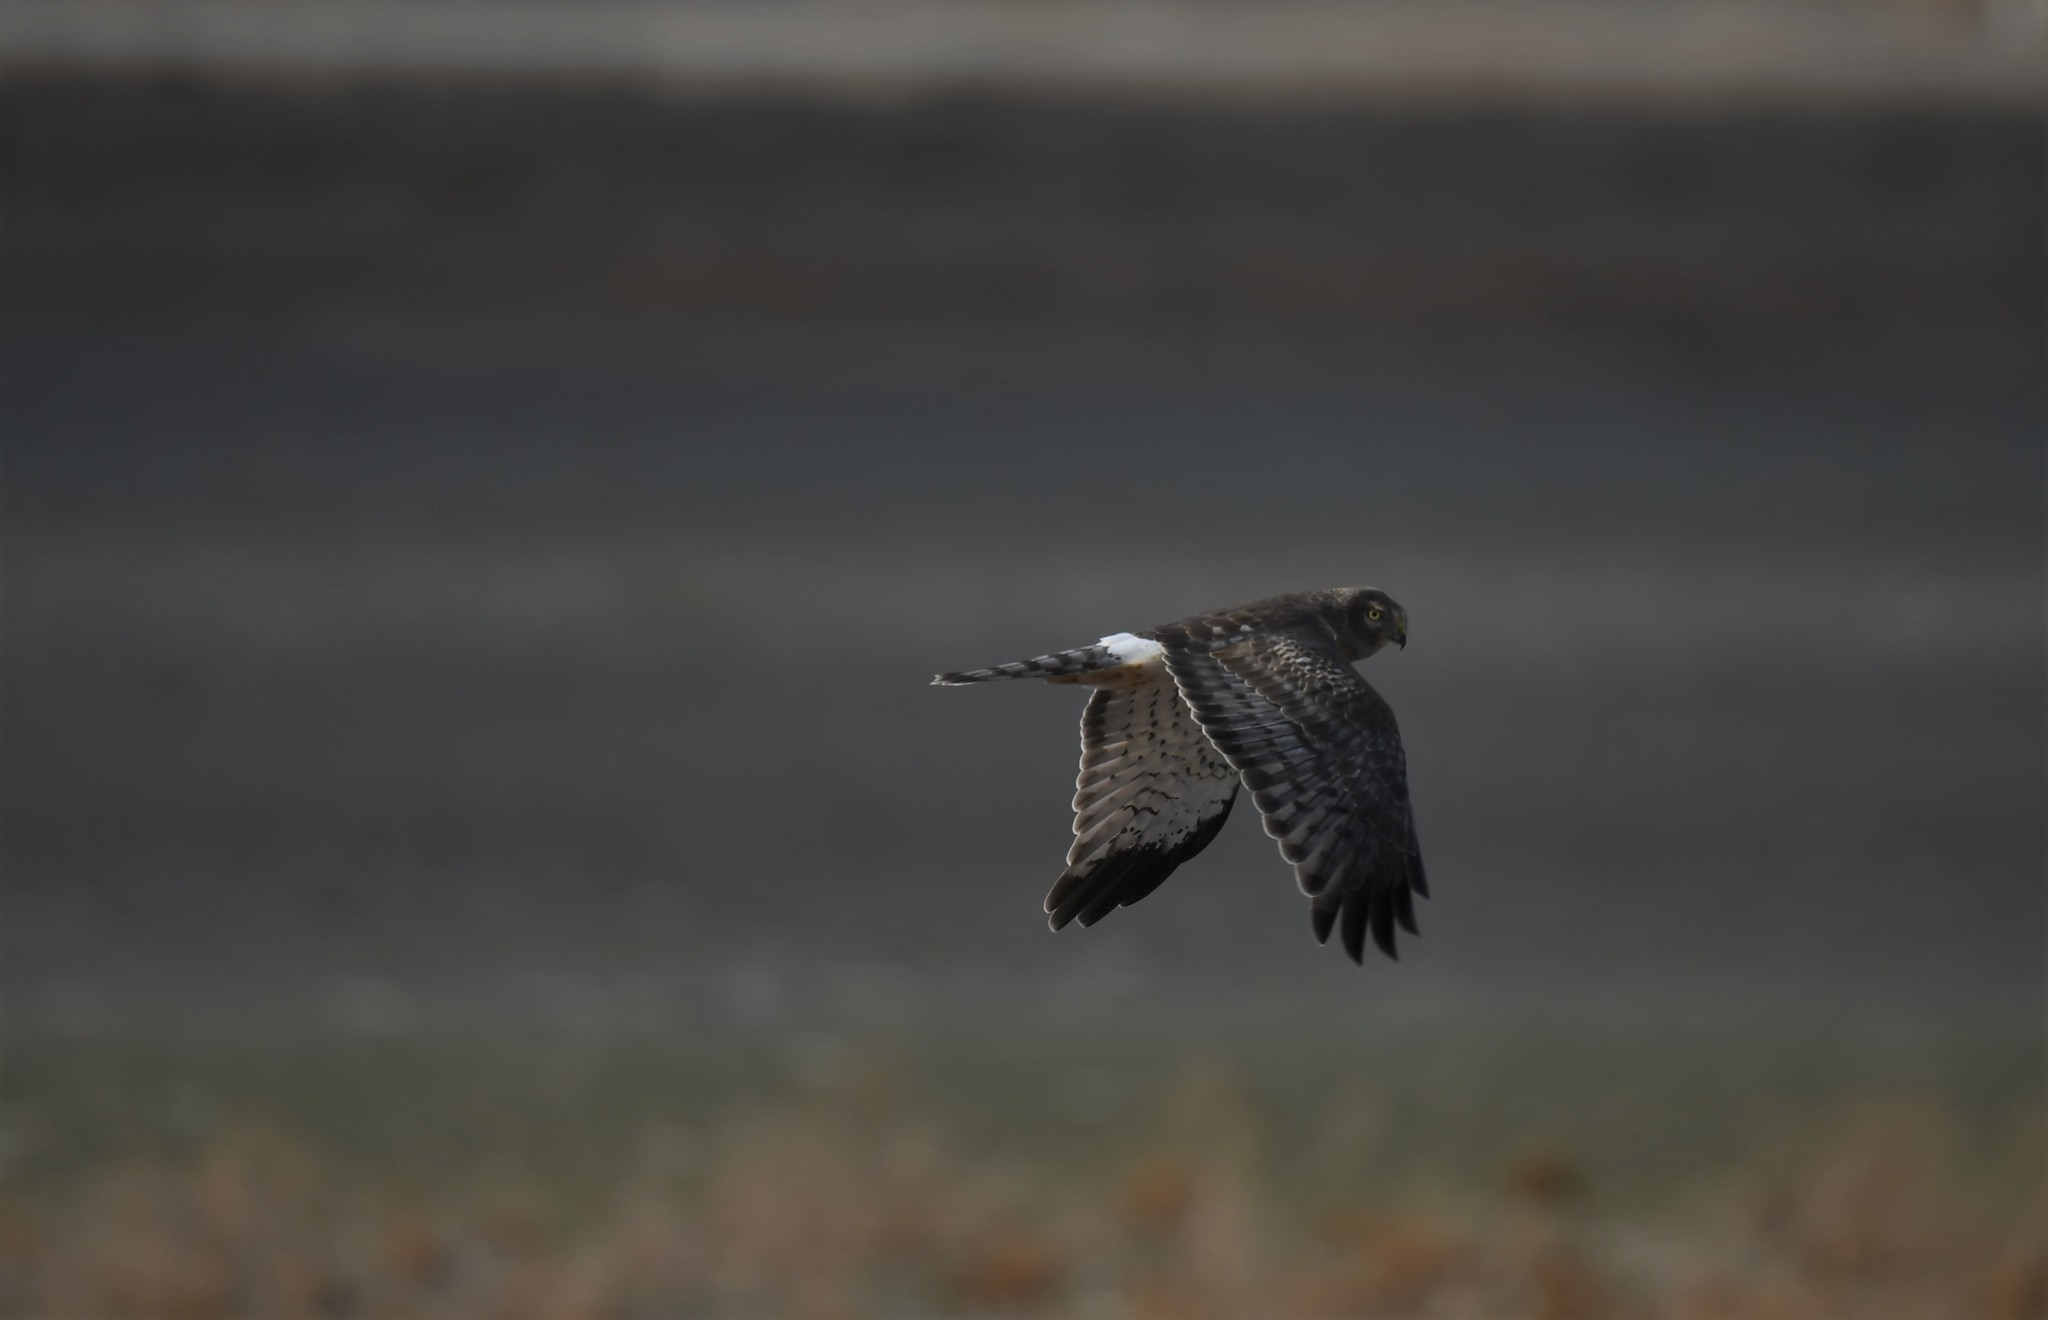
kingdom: Animalia
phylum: Chordata
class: Aves
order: Accipitriformes
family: Accipitridae
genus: Circus
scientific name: Circus cyaneus
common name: Hen harrier
